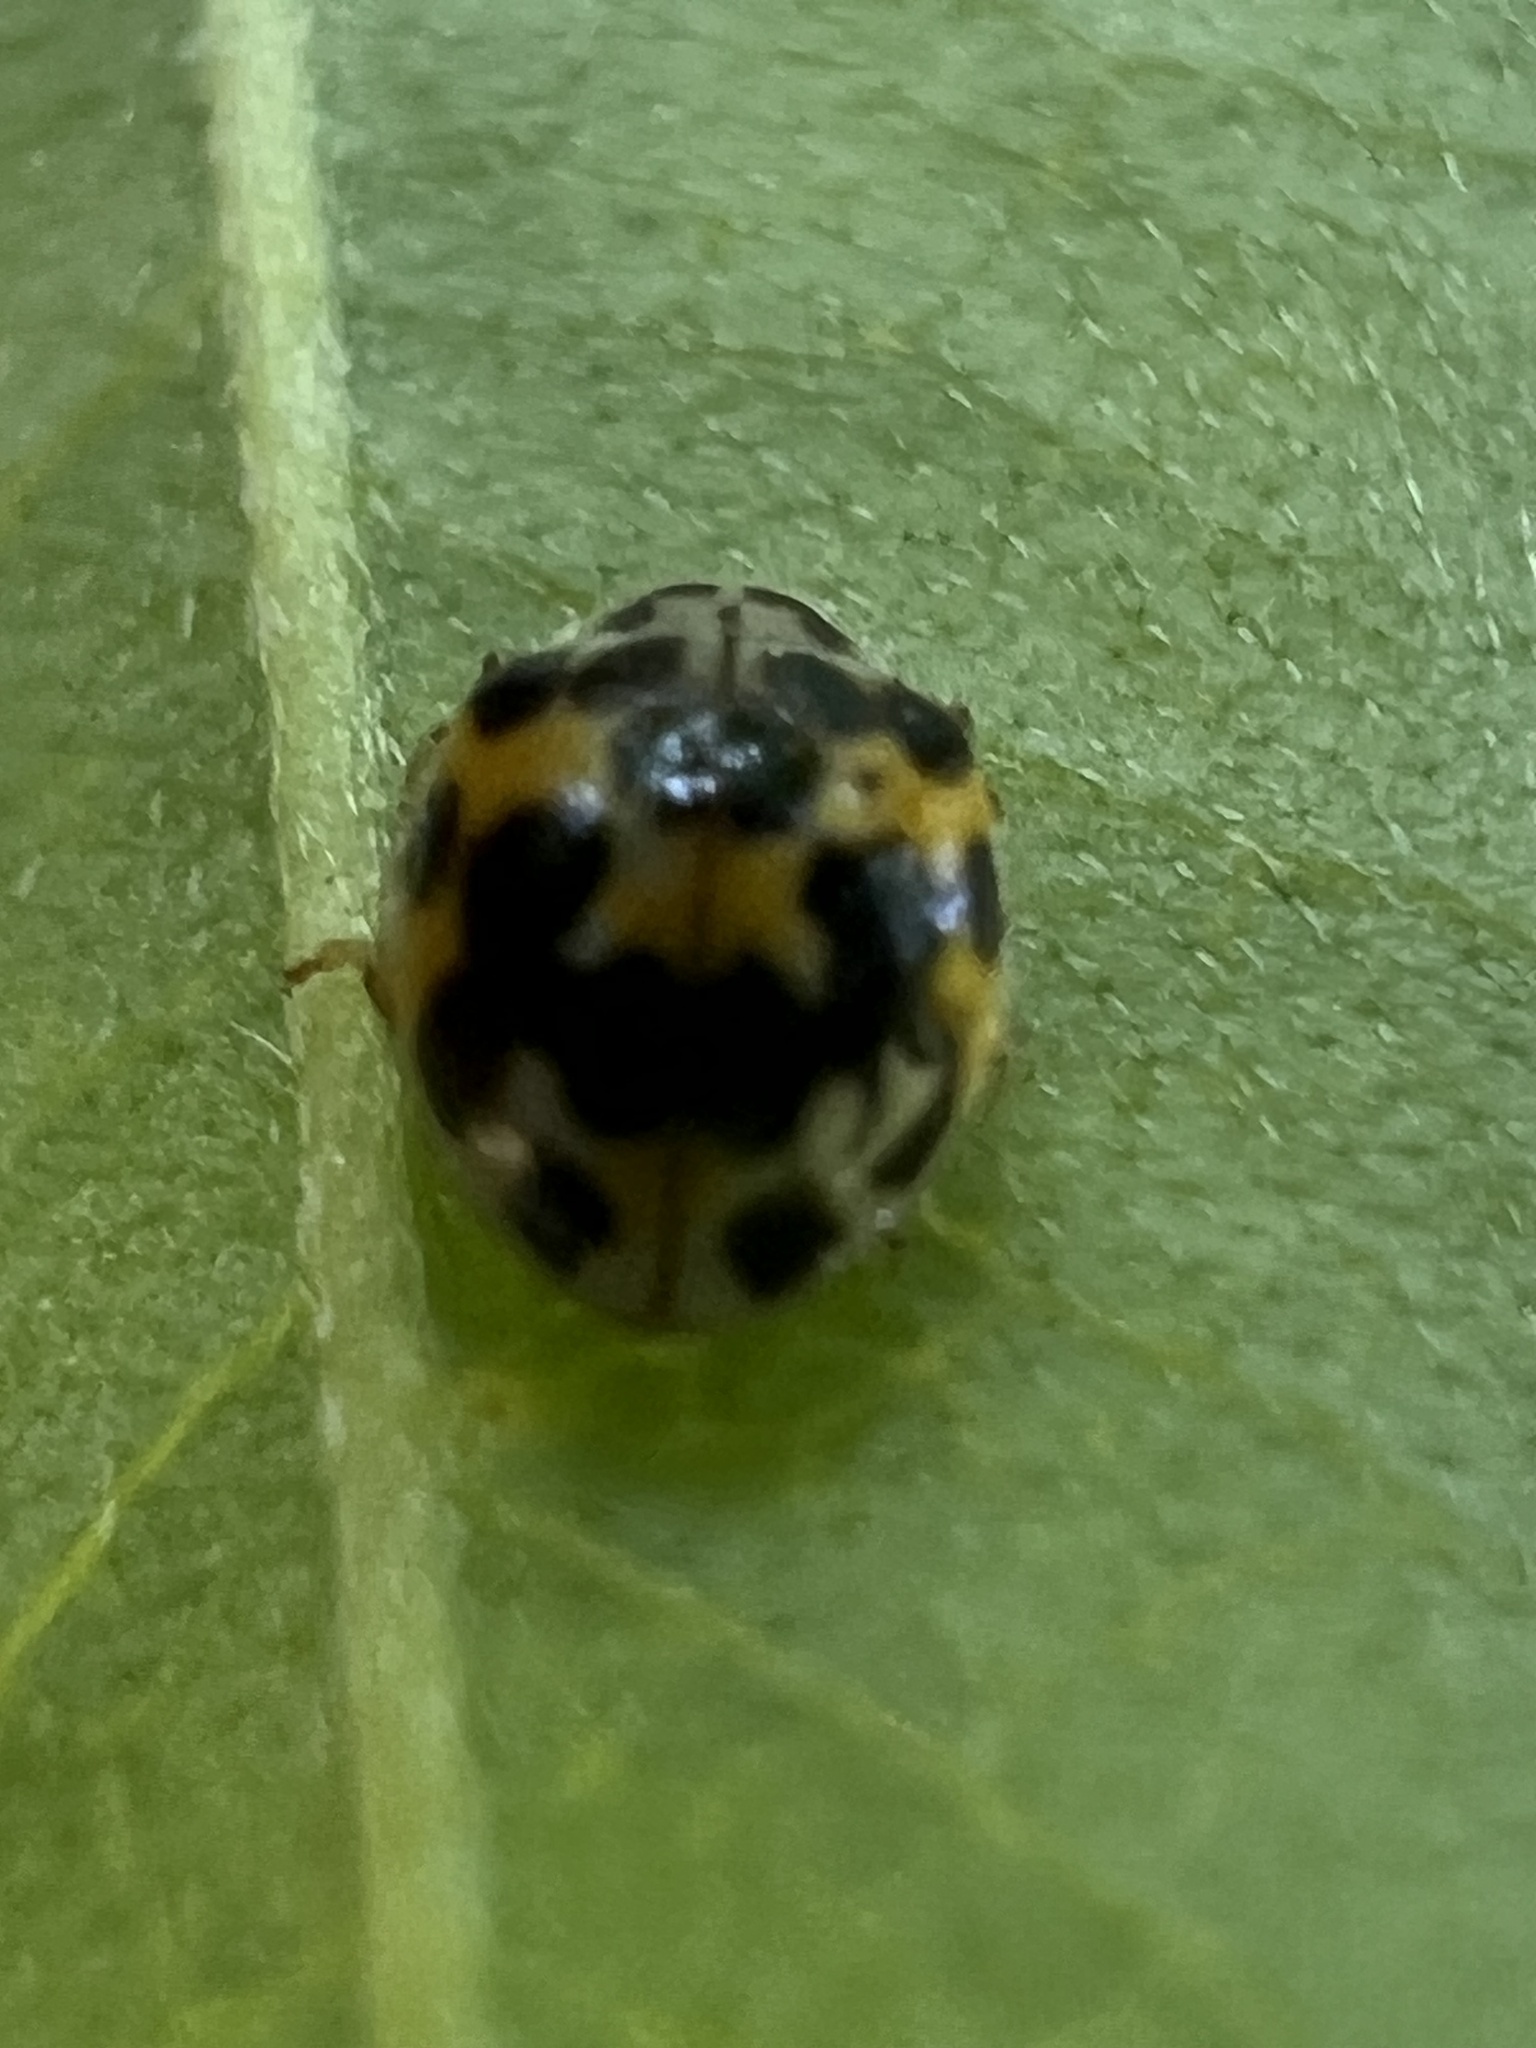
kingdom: Animalia
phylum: Arthropoda
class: Insecta
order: Coleoptera
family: Coccinellidae
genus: Psyllobora
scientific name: Psyllobora vigintimaculata
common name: Ladybird beetle
